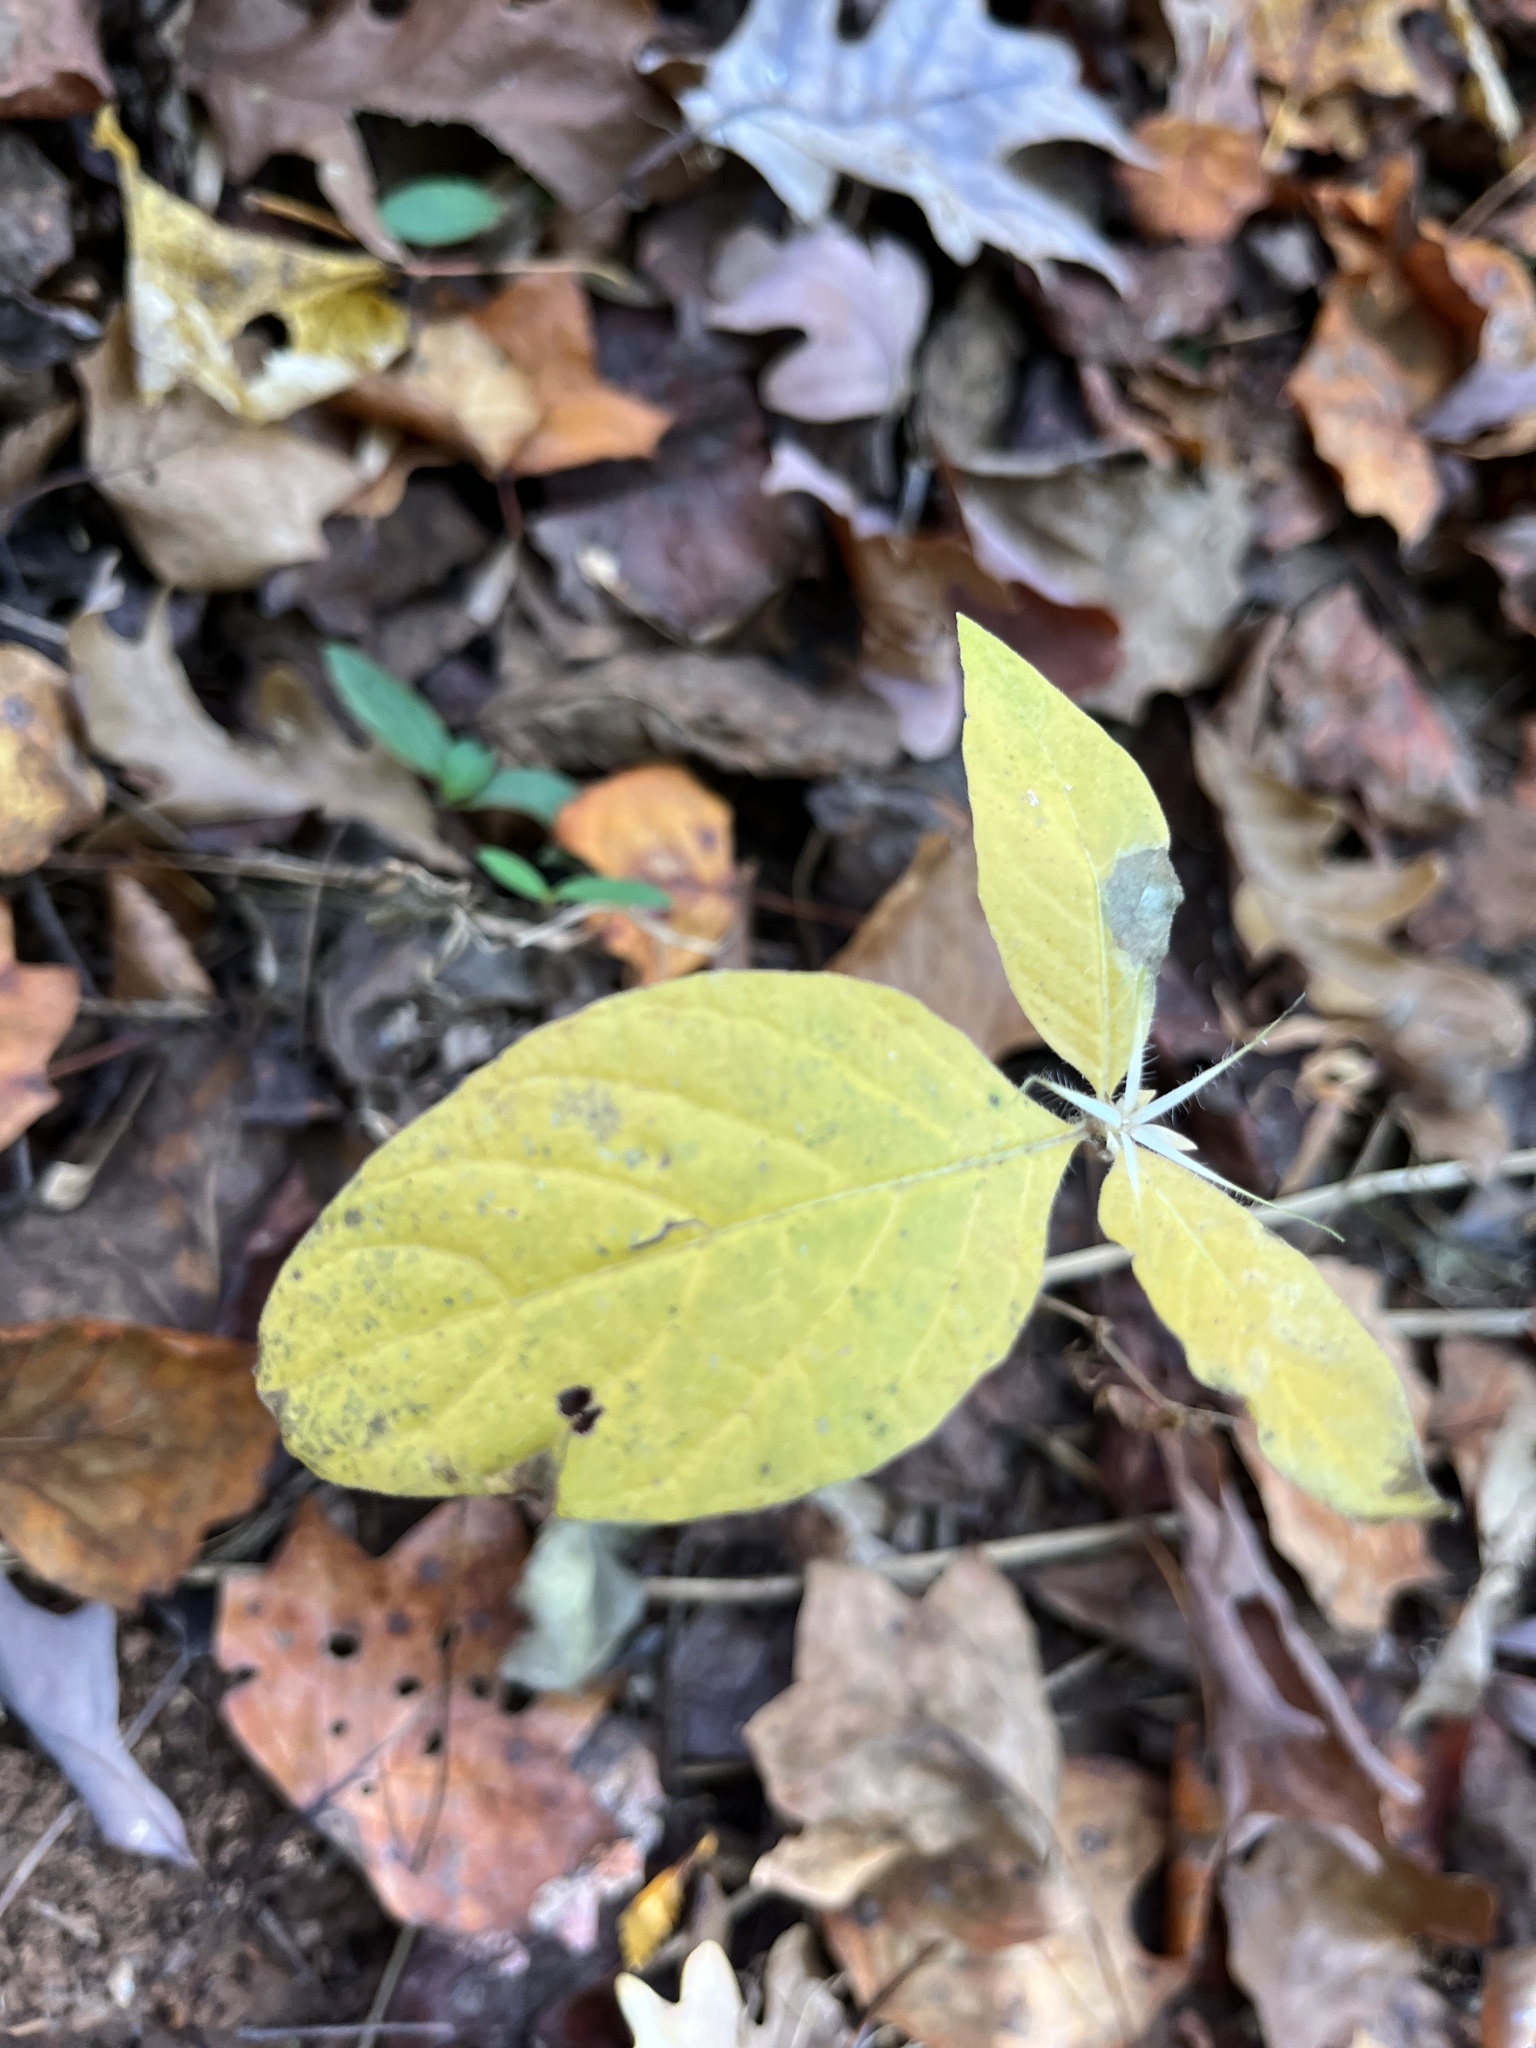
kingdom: Plantae
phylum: Tracheophyta
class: Magnoliopsida
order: Lamiales
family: Acanthaceae
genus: Ruellia
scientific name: Ruellia caroliniensis
